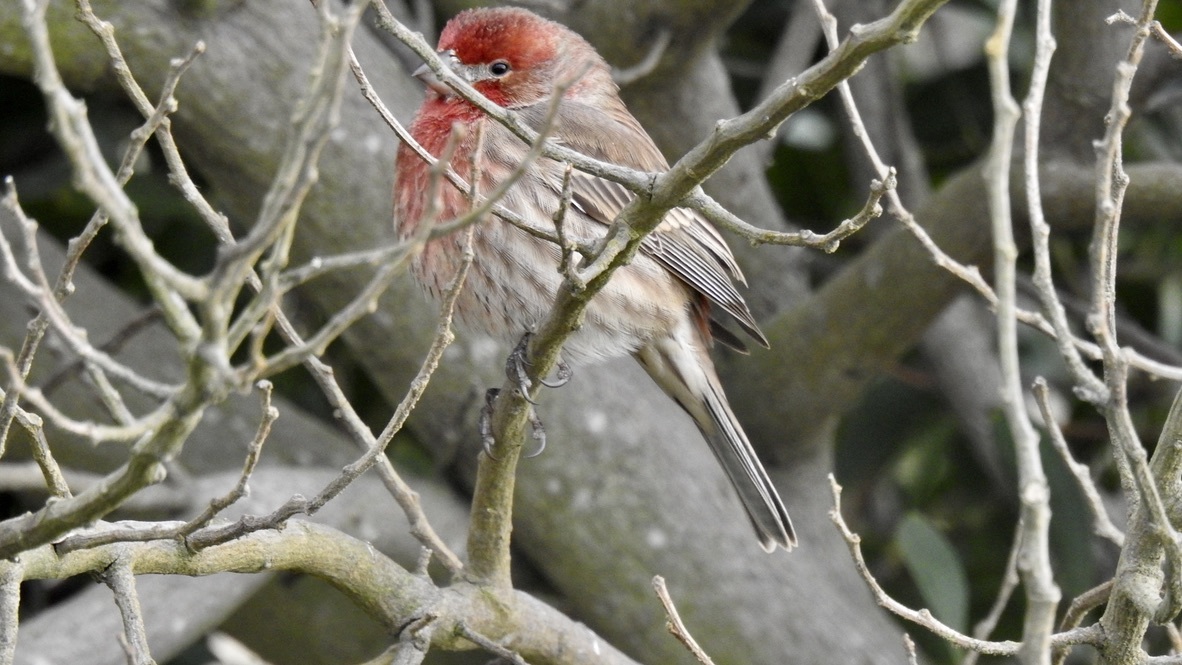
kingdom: Animalia
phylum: Chordata
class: Aves
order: Passeriformes
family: Fringillidae
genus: Haemorhous
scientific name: Haemorhous mexicanus
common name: House finch
